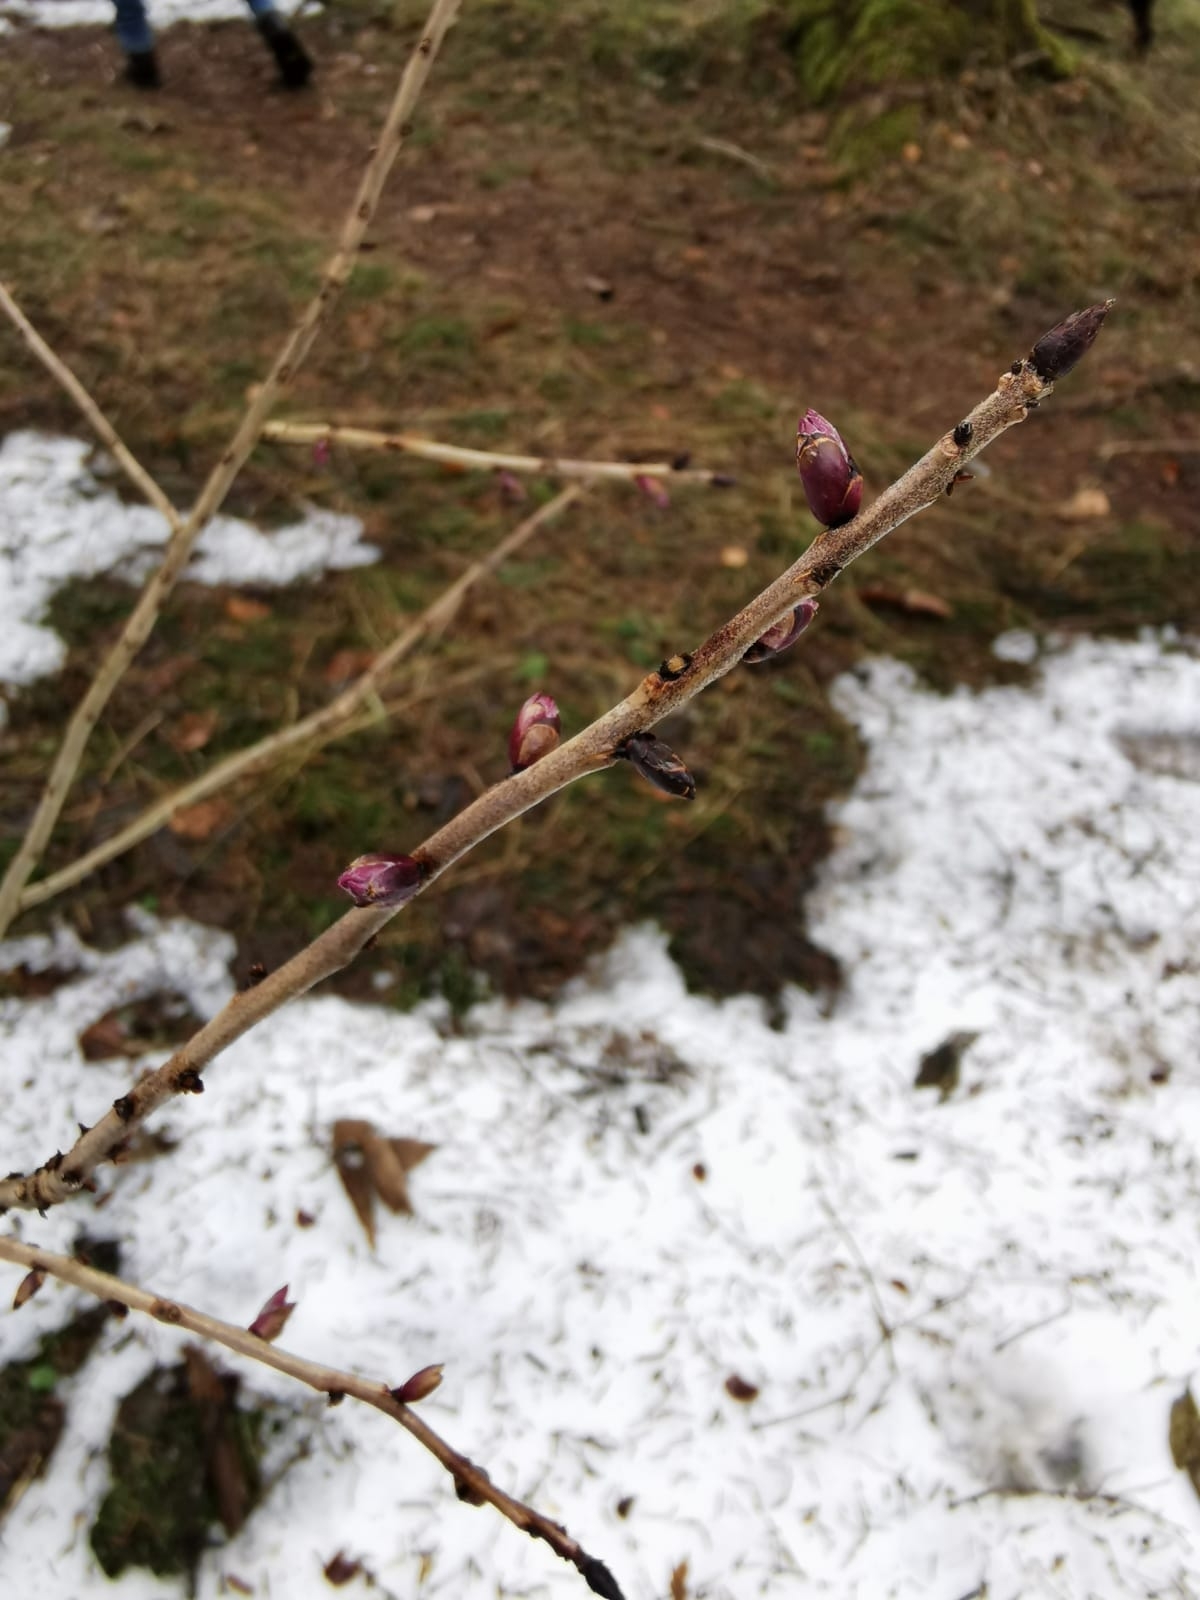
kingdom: Plantae
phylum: Tracheophyta
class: Magnoliopsida
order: Malvales
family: Thymelaeaceae
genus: Daphne
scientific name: Daphne mezereum
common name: Mezereon
